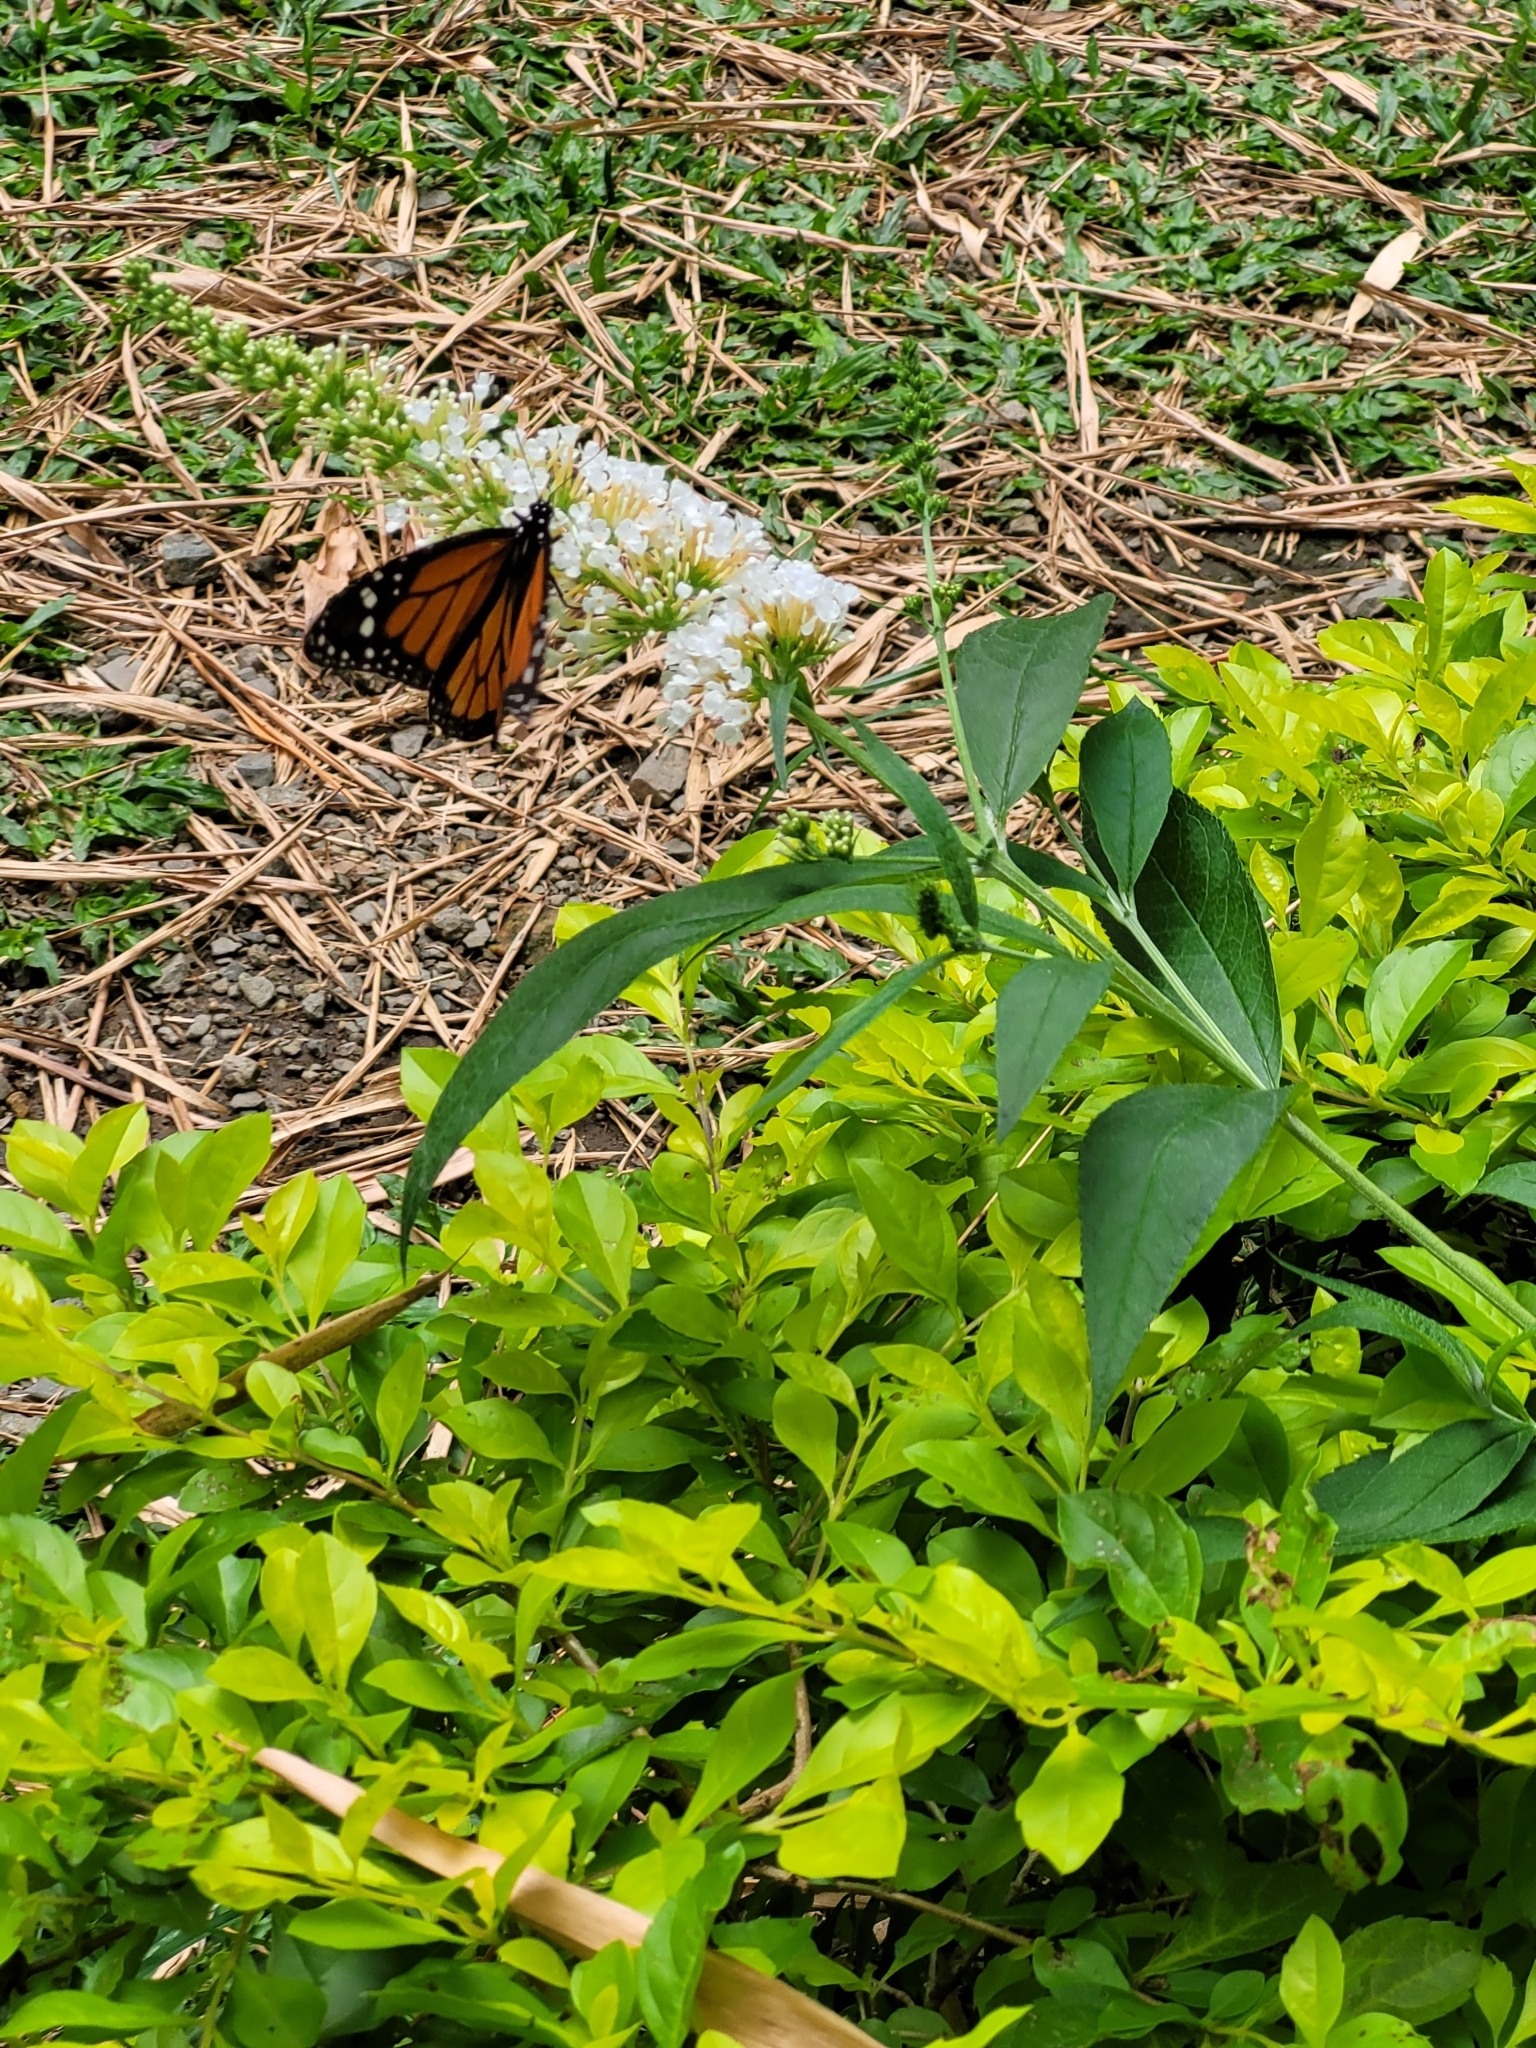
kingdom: Animalia
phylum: Arthropoda
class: Insecta
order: Lepidoptera
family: Nymphalidae
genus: Danaus
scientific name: Danaus plexippus
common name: Monarch
